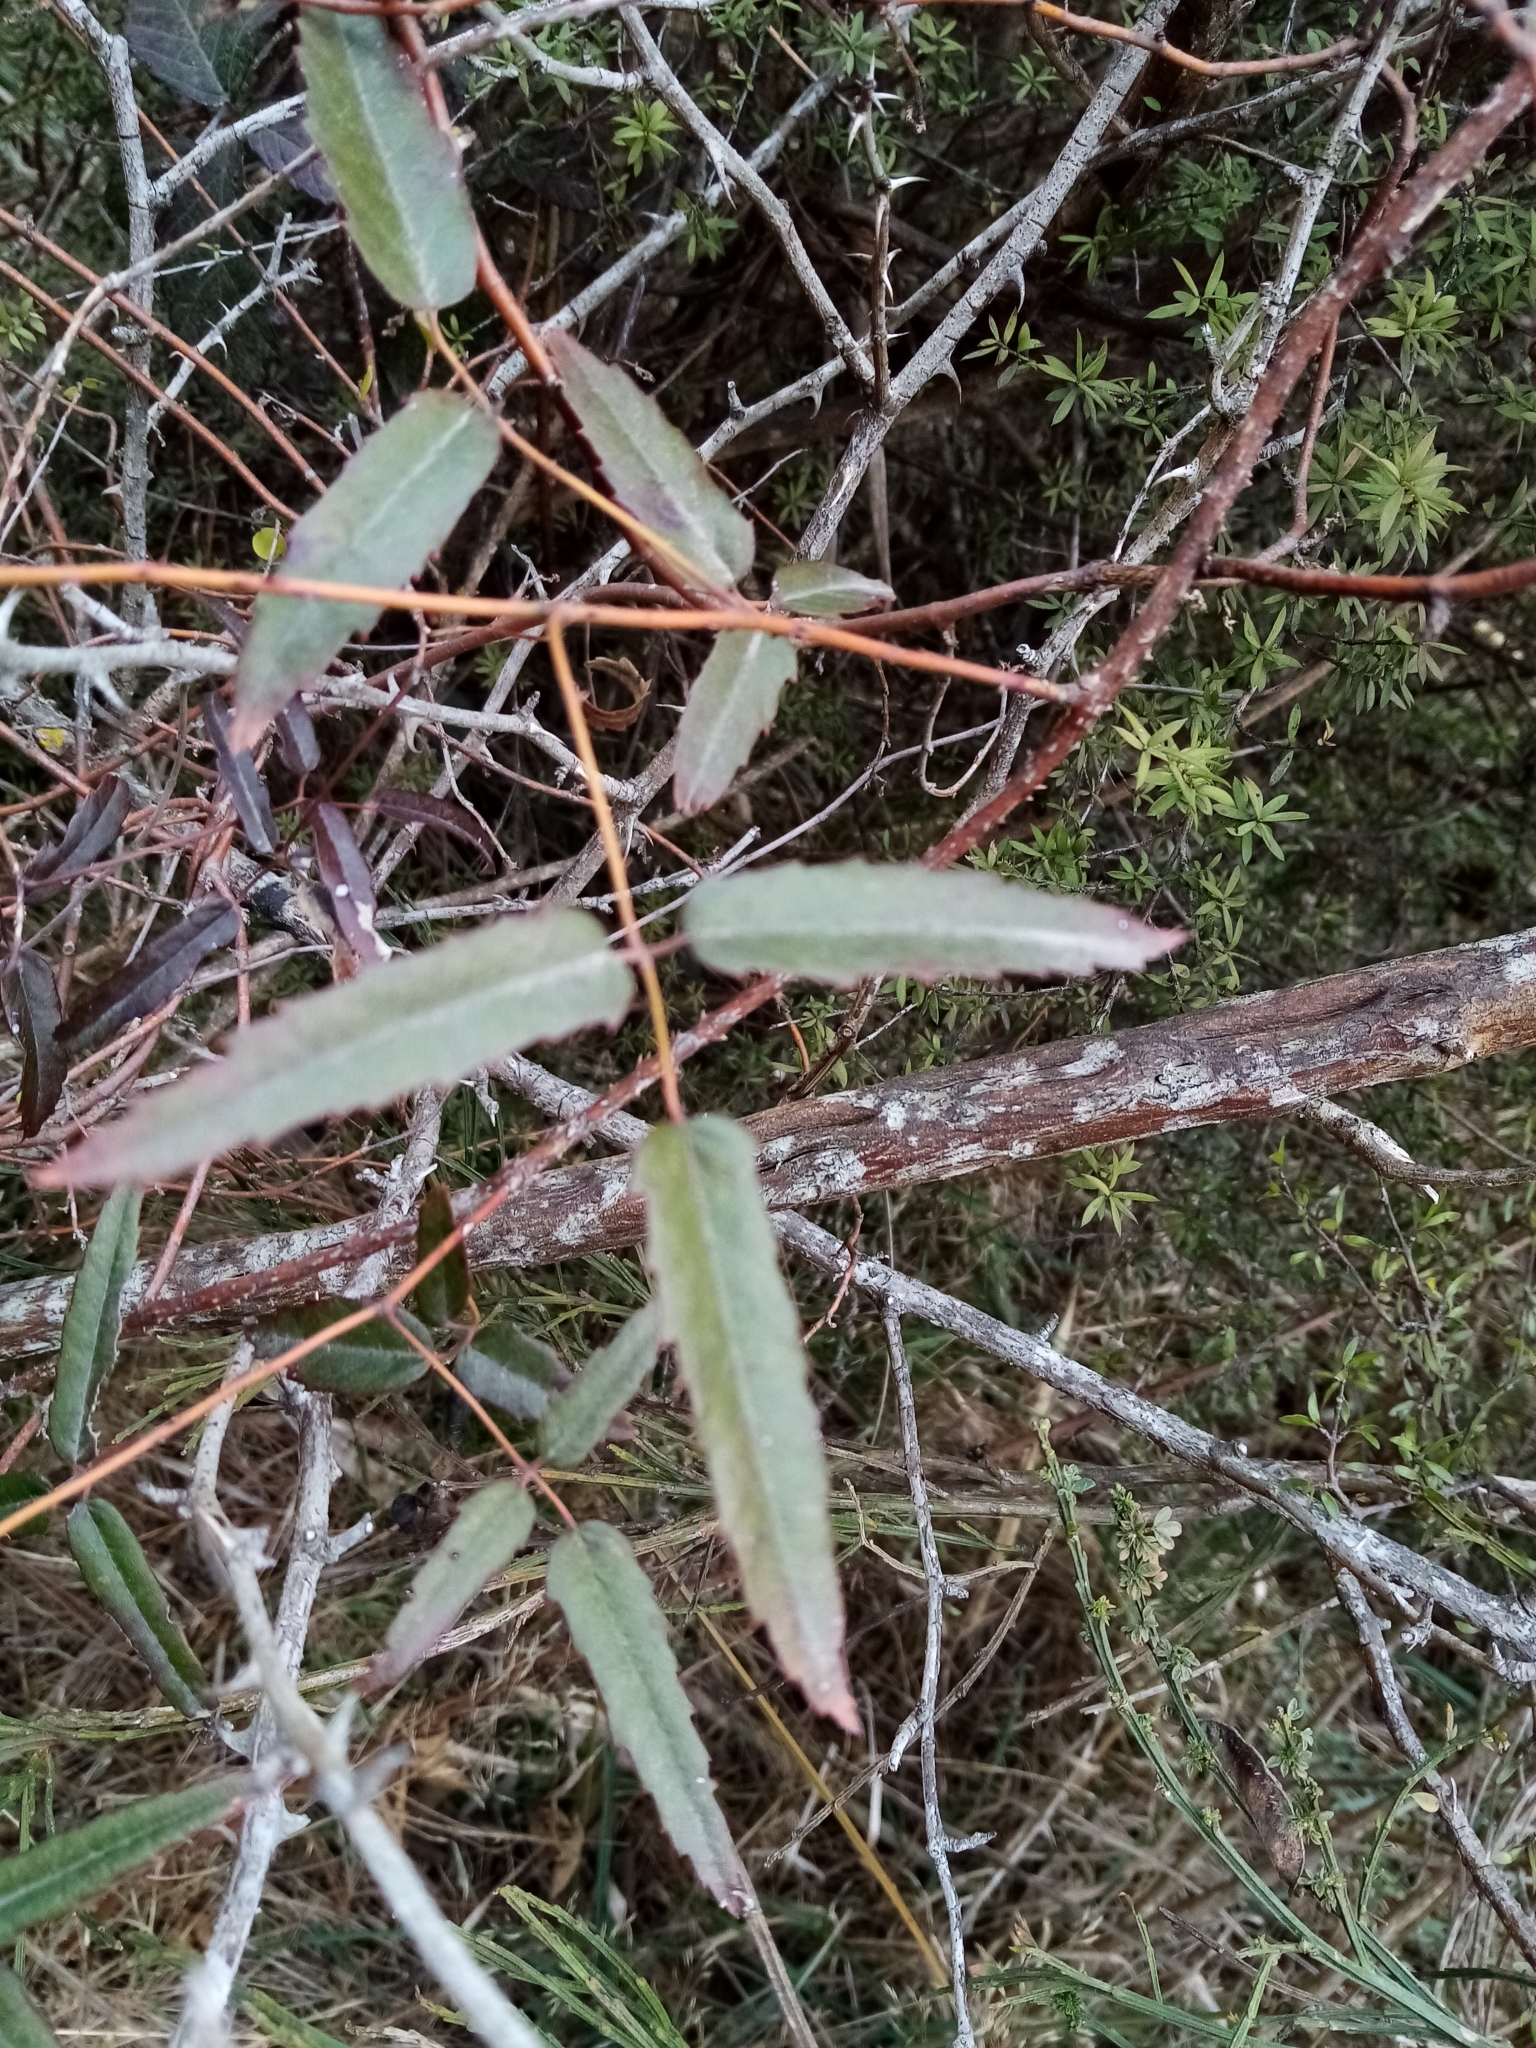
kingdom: Plantae
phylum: Tracheophyta
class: Magnoliopsida
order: Rosales
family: Rosaceae
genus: Rubus
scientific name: Rubus schmidelioides
